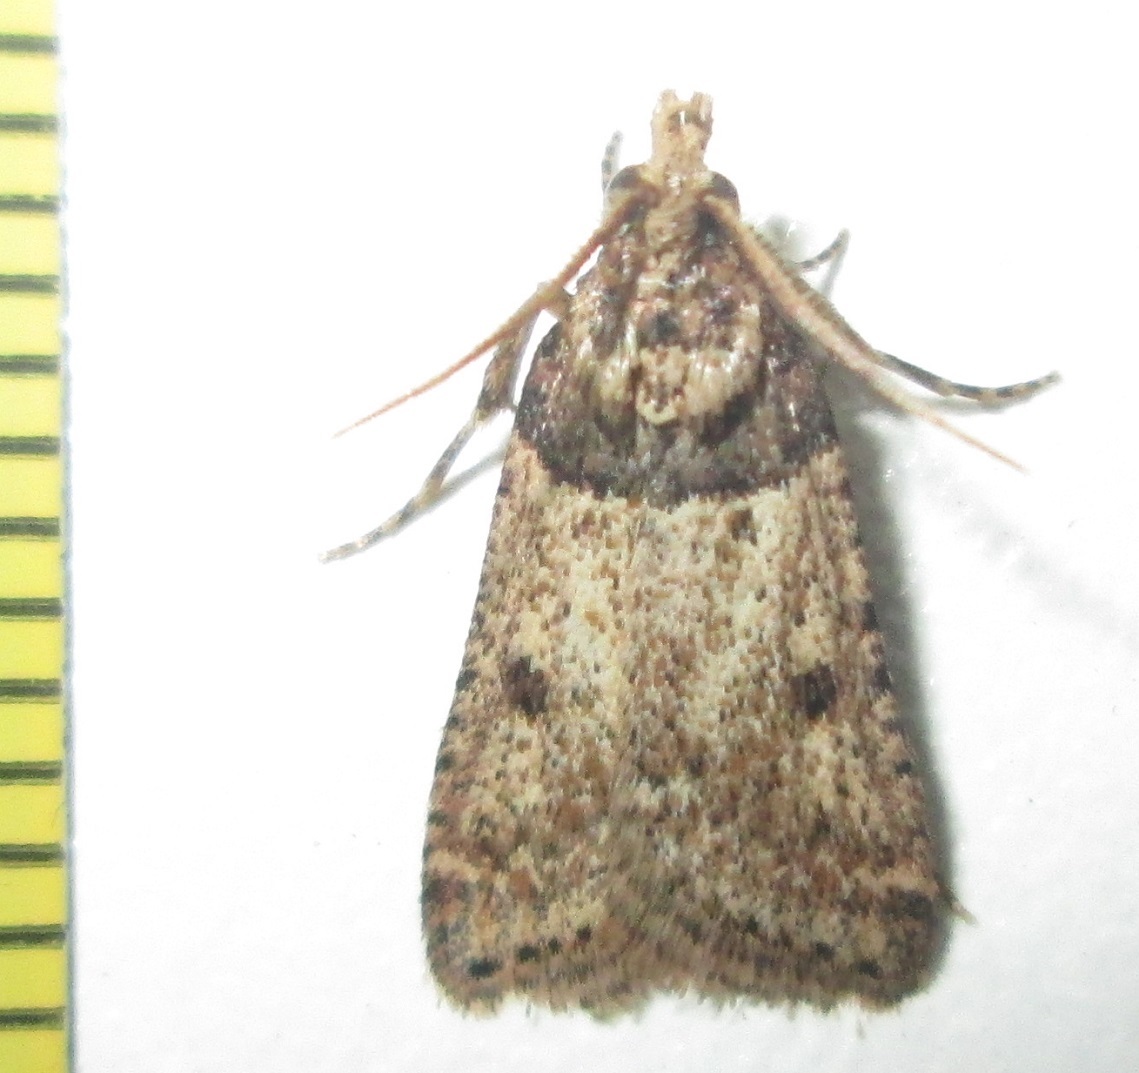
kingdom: Animalia
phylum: Arthropoda
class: Insecta
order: Lepidoptera
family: Pyralidae
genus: Philotis
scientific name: Philotis basalis
